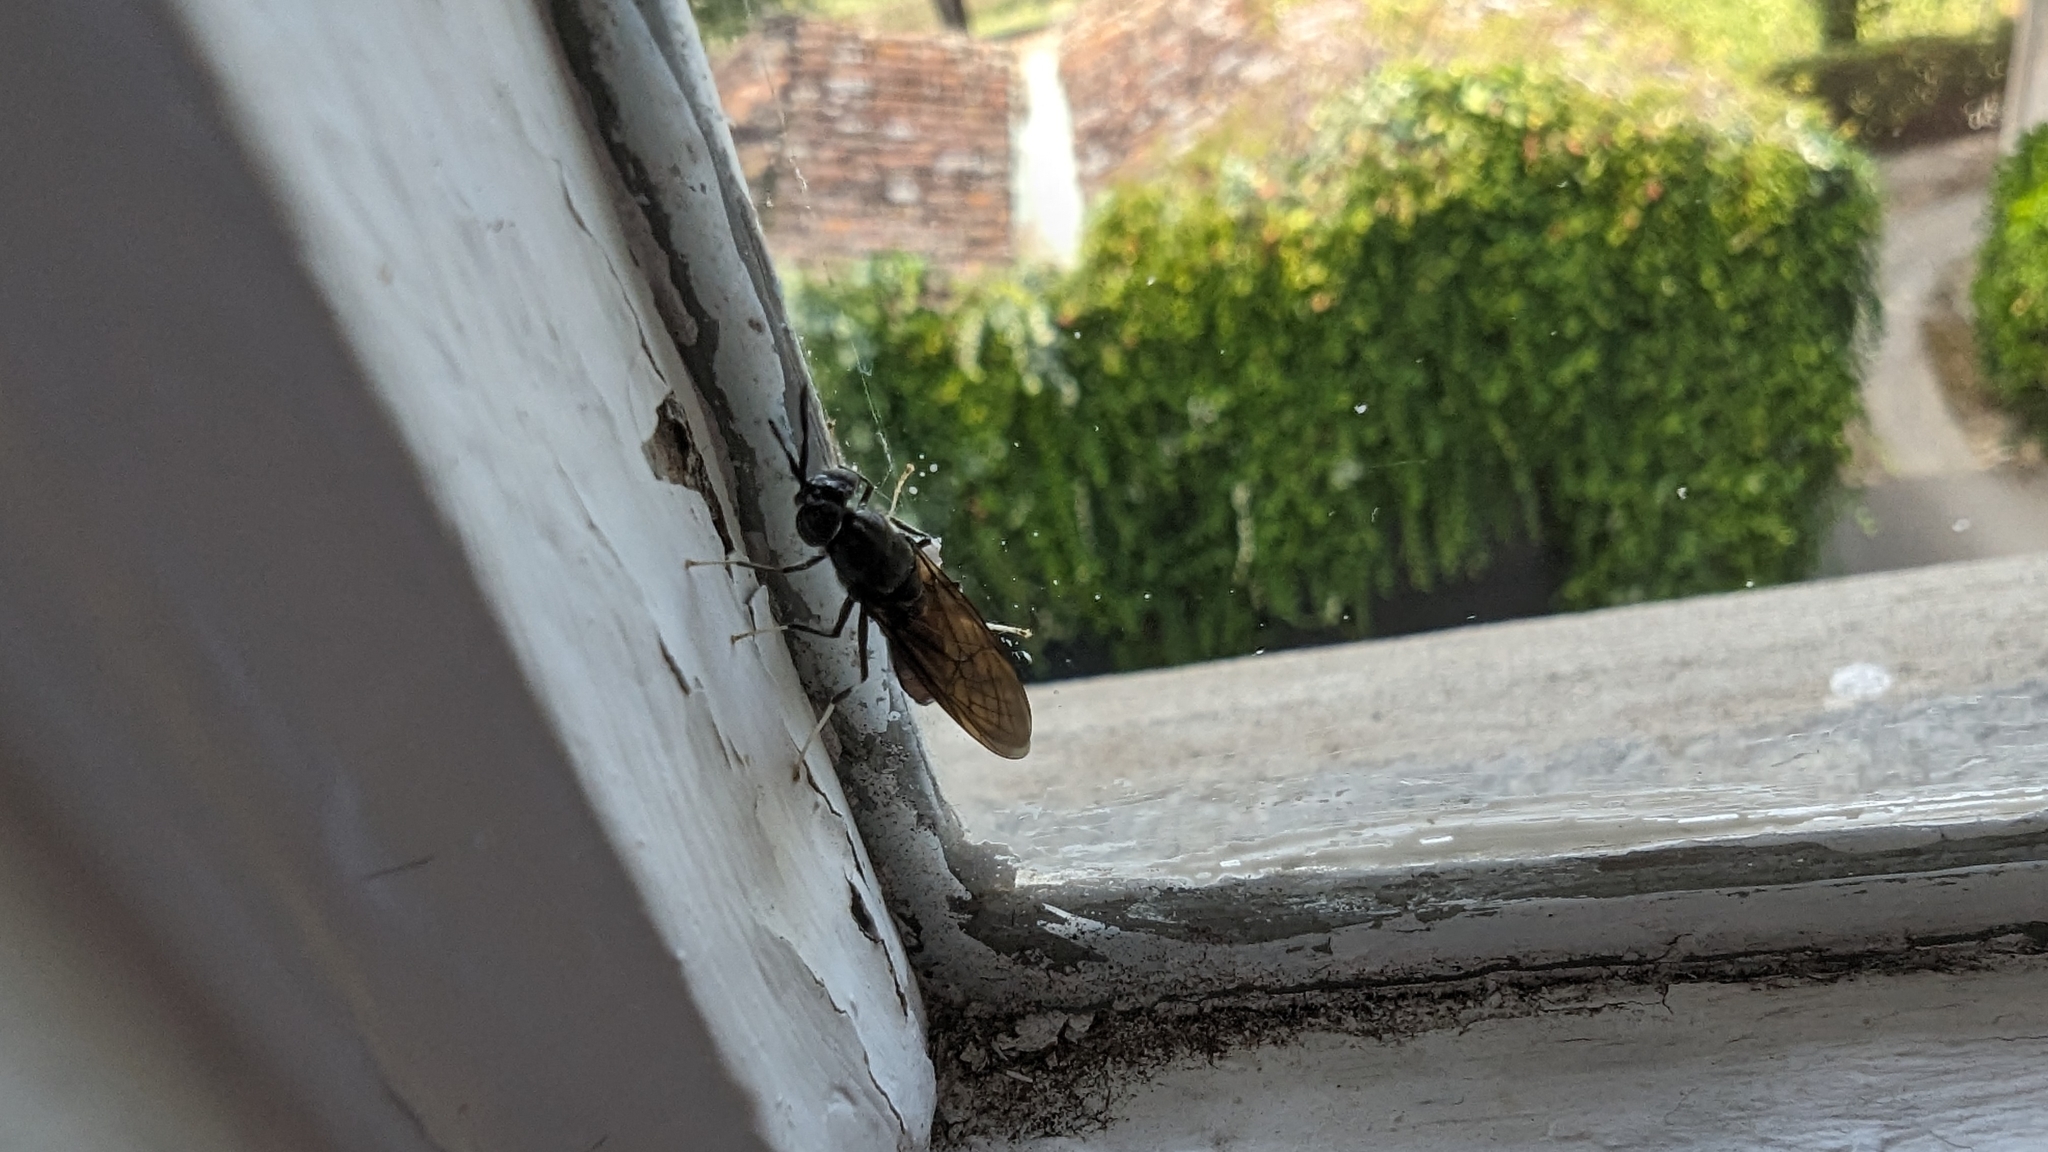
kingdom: Animalia
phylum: Arthropoda
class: Insecta
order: Diptera
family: Stratiomyidae
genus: Hermetia
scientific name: Hermetia illucens
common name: Black soldier fly
